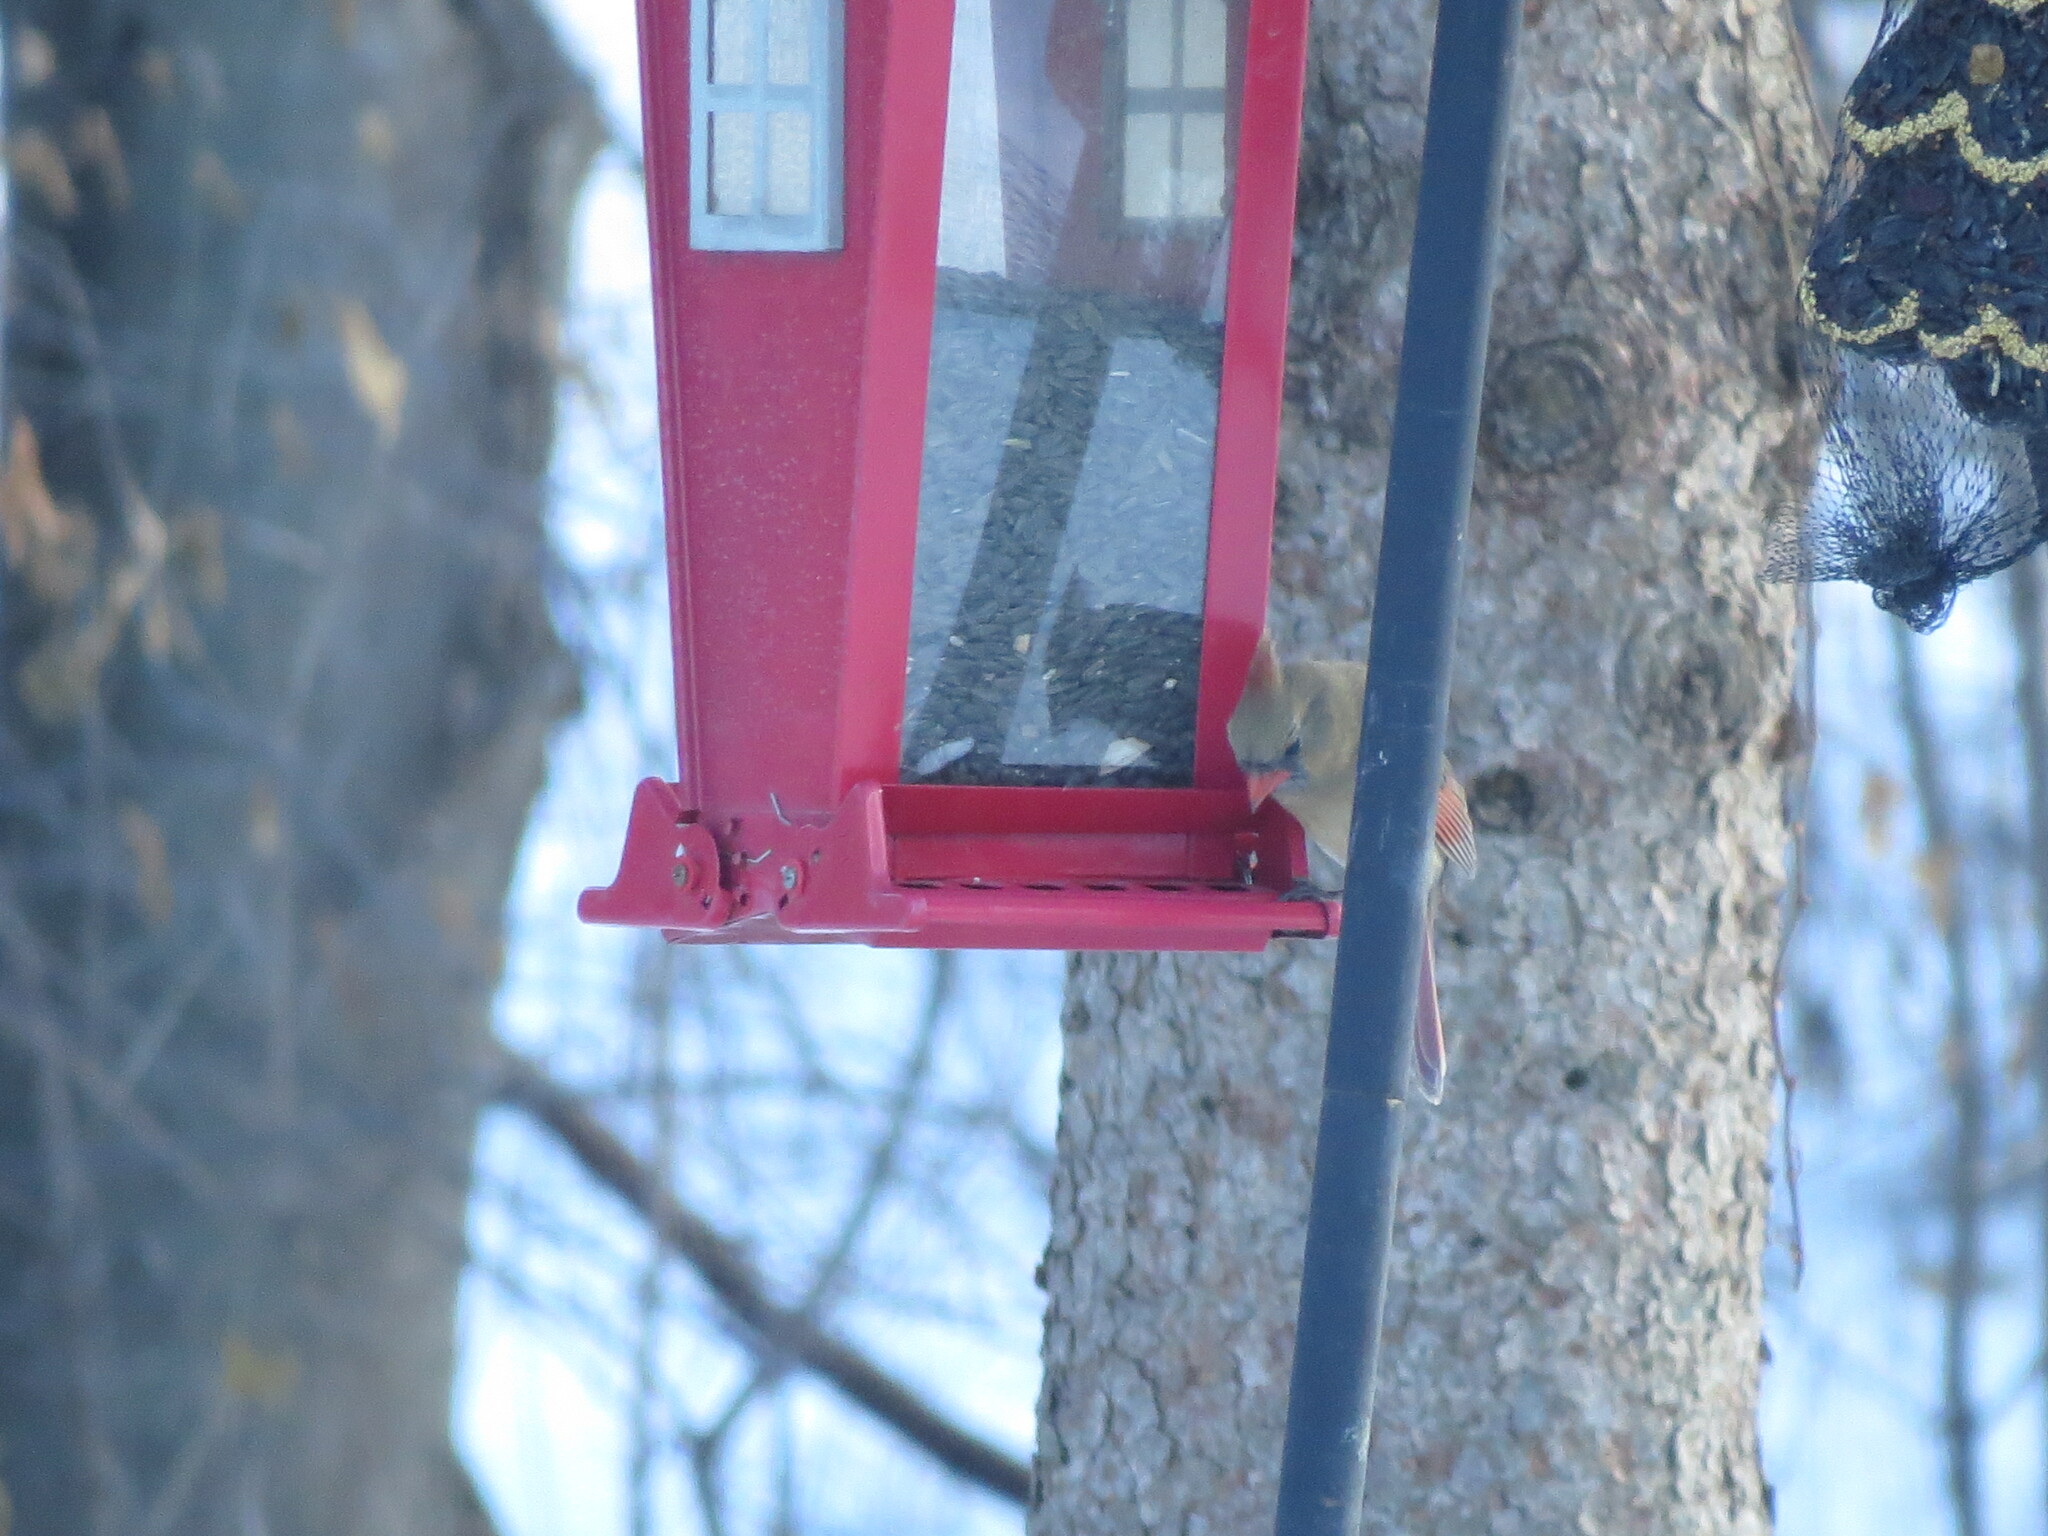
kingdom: Animalia
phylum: Chordata
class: Aves
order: Passeriformes
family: Cardinalidae
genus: Cardinalis
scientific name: Cardinalis cardinalis
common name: Northern cardinal
